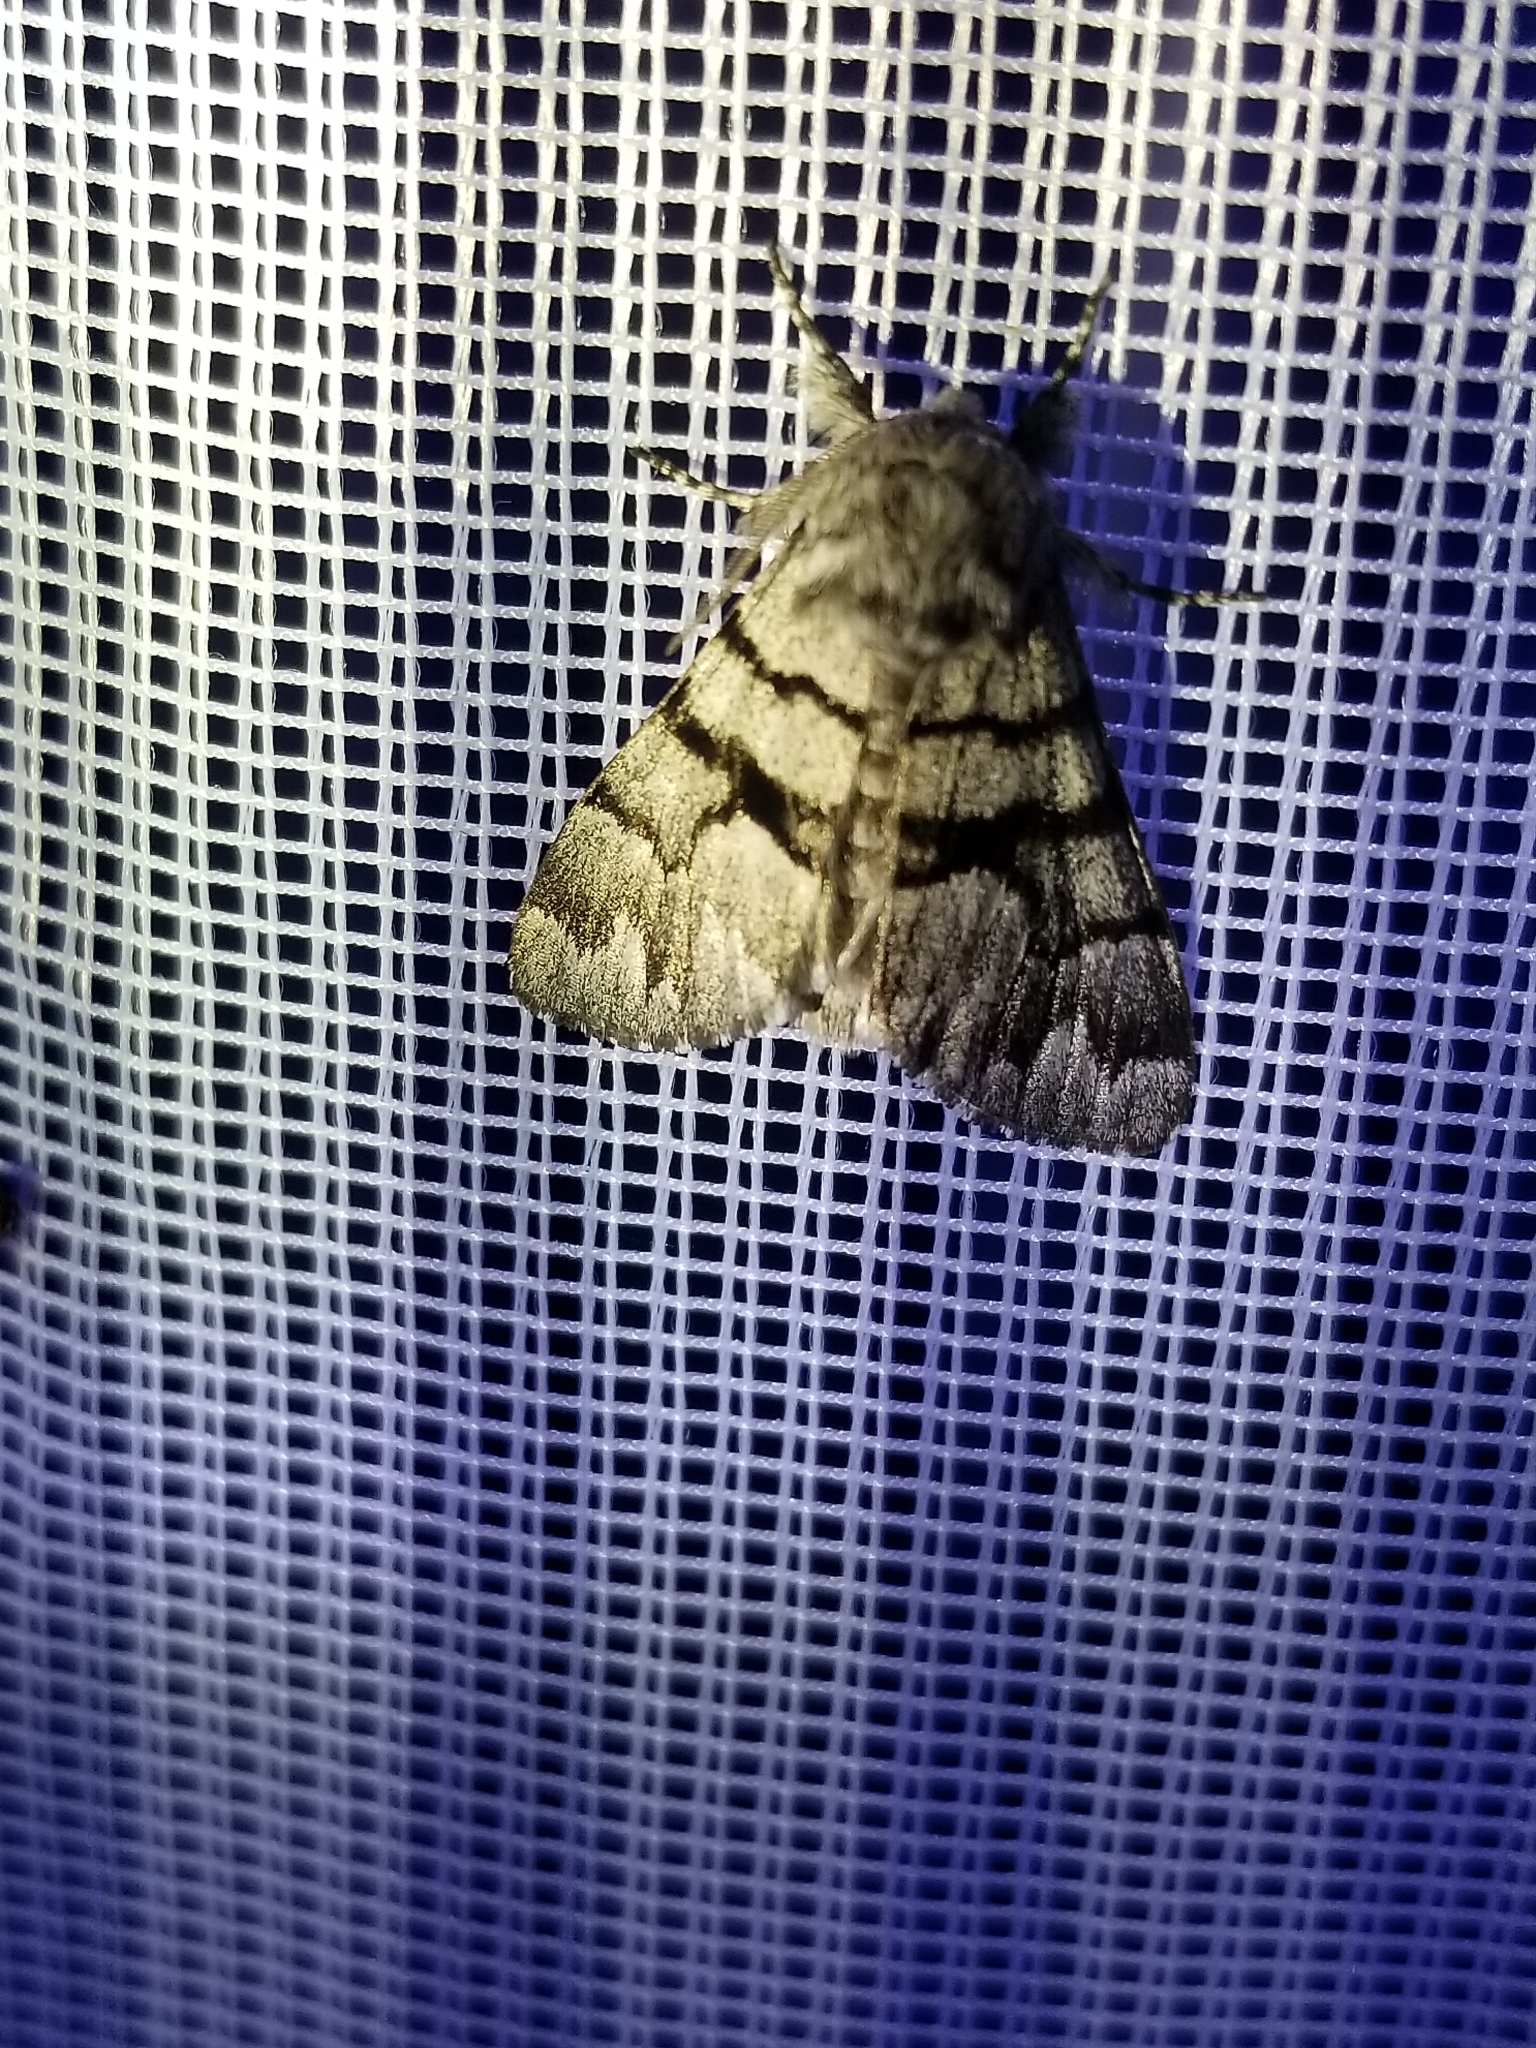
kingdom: Animalia
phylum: Arthropoda
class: Insecta
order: Lepidoptera
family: Noctuidae
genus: Panthea
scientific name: Panthea furcilla
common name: Eastern panthea moth
